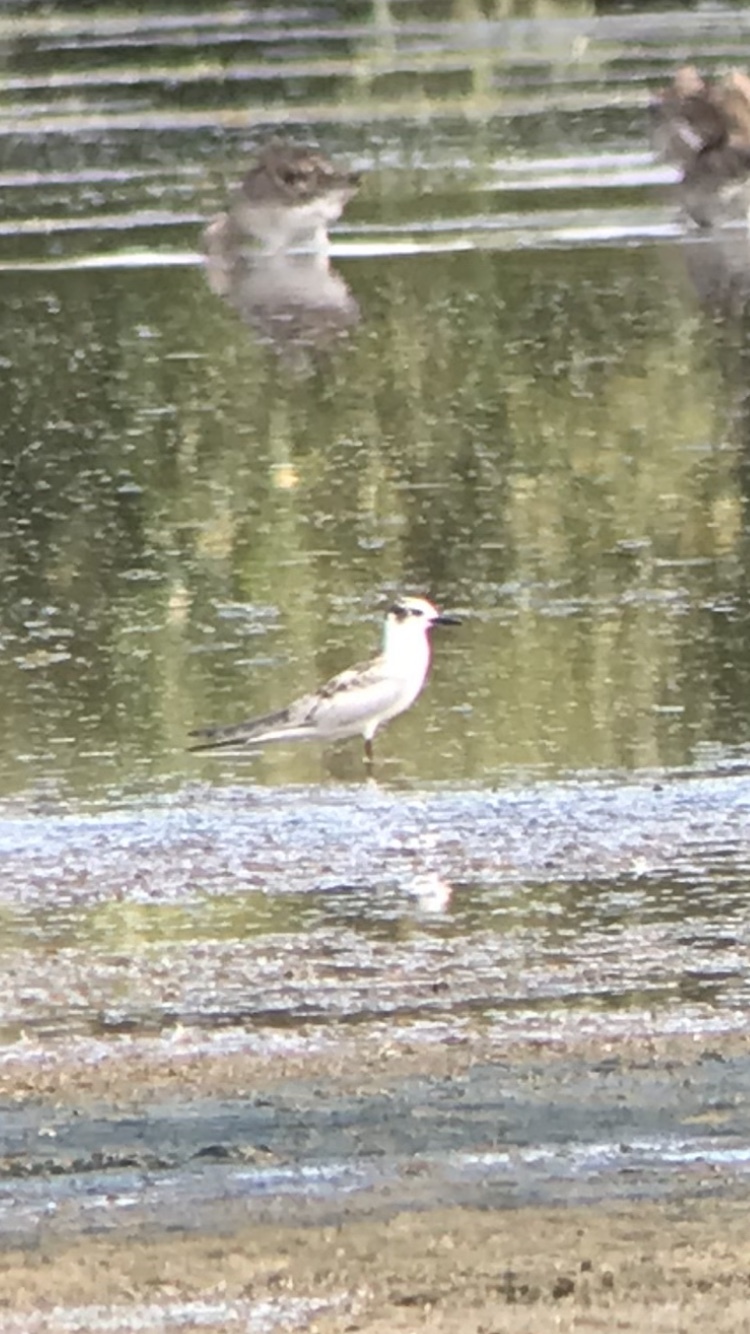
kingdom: Animalia
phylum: Chordata
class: Aves
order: Charadriiformes
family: Laridae
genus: Chlidonias
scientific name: Chlidonias hybrida
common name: Whiskered tern
